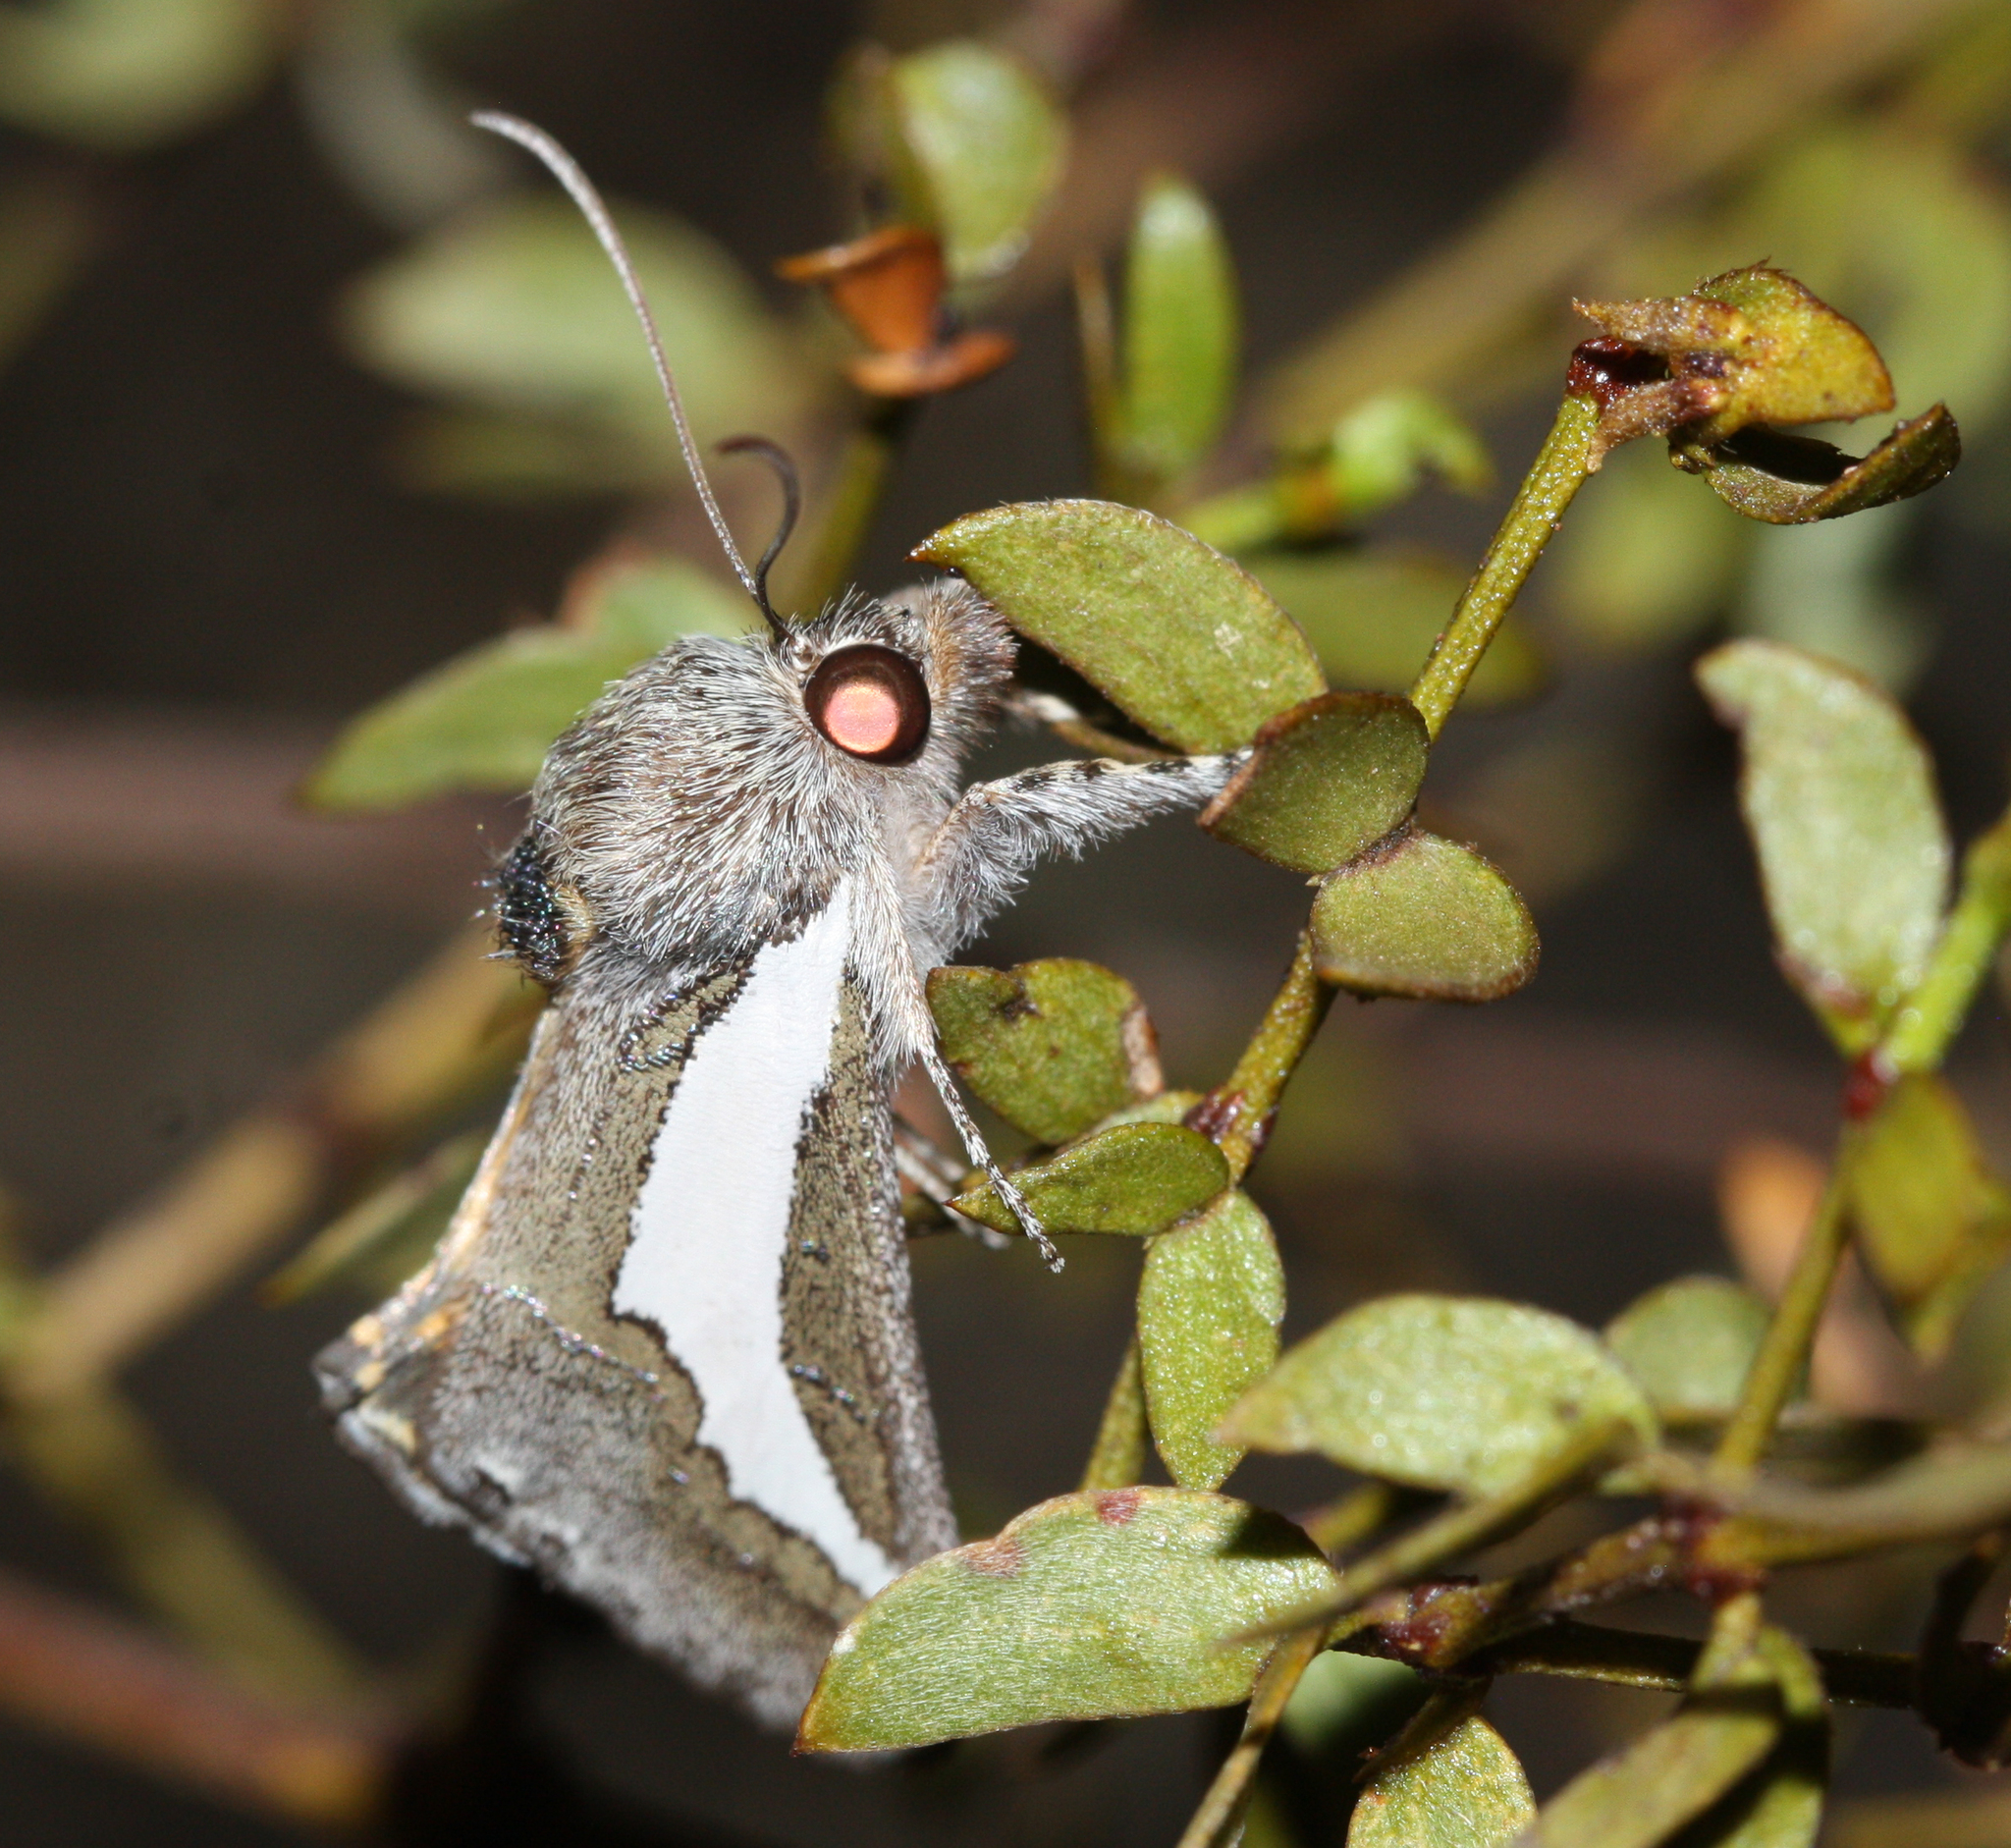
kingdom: Animalia
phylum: Arthropoda
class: Insecta
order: Lepidoptera
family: Noctuidae
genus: Euscirrhopterus
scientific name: Euscirrhopterus cosyra
